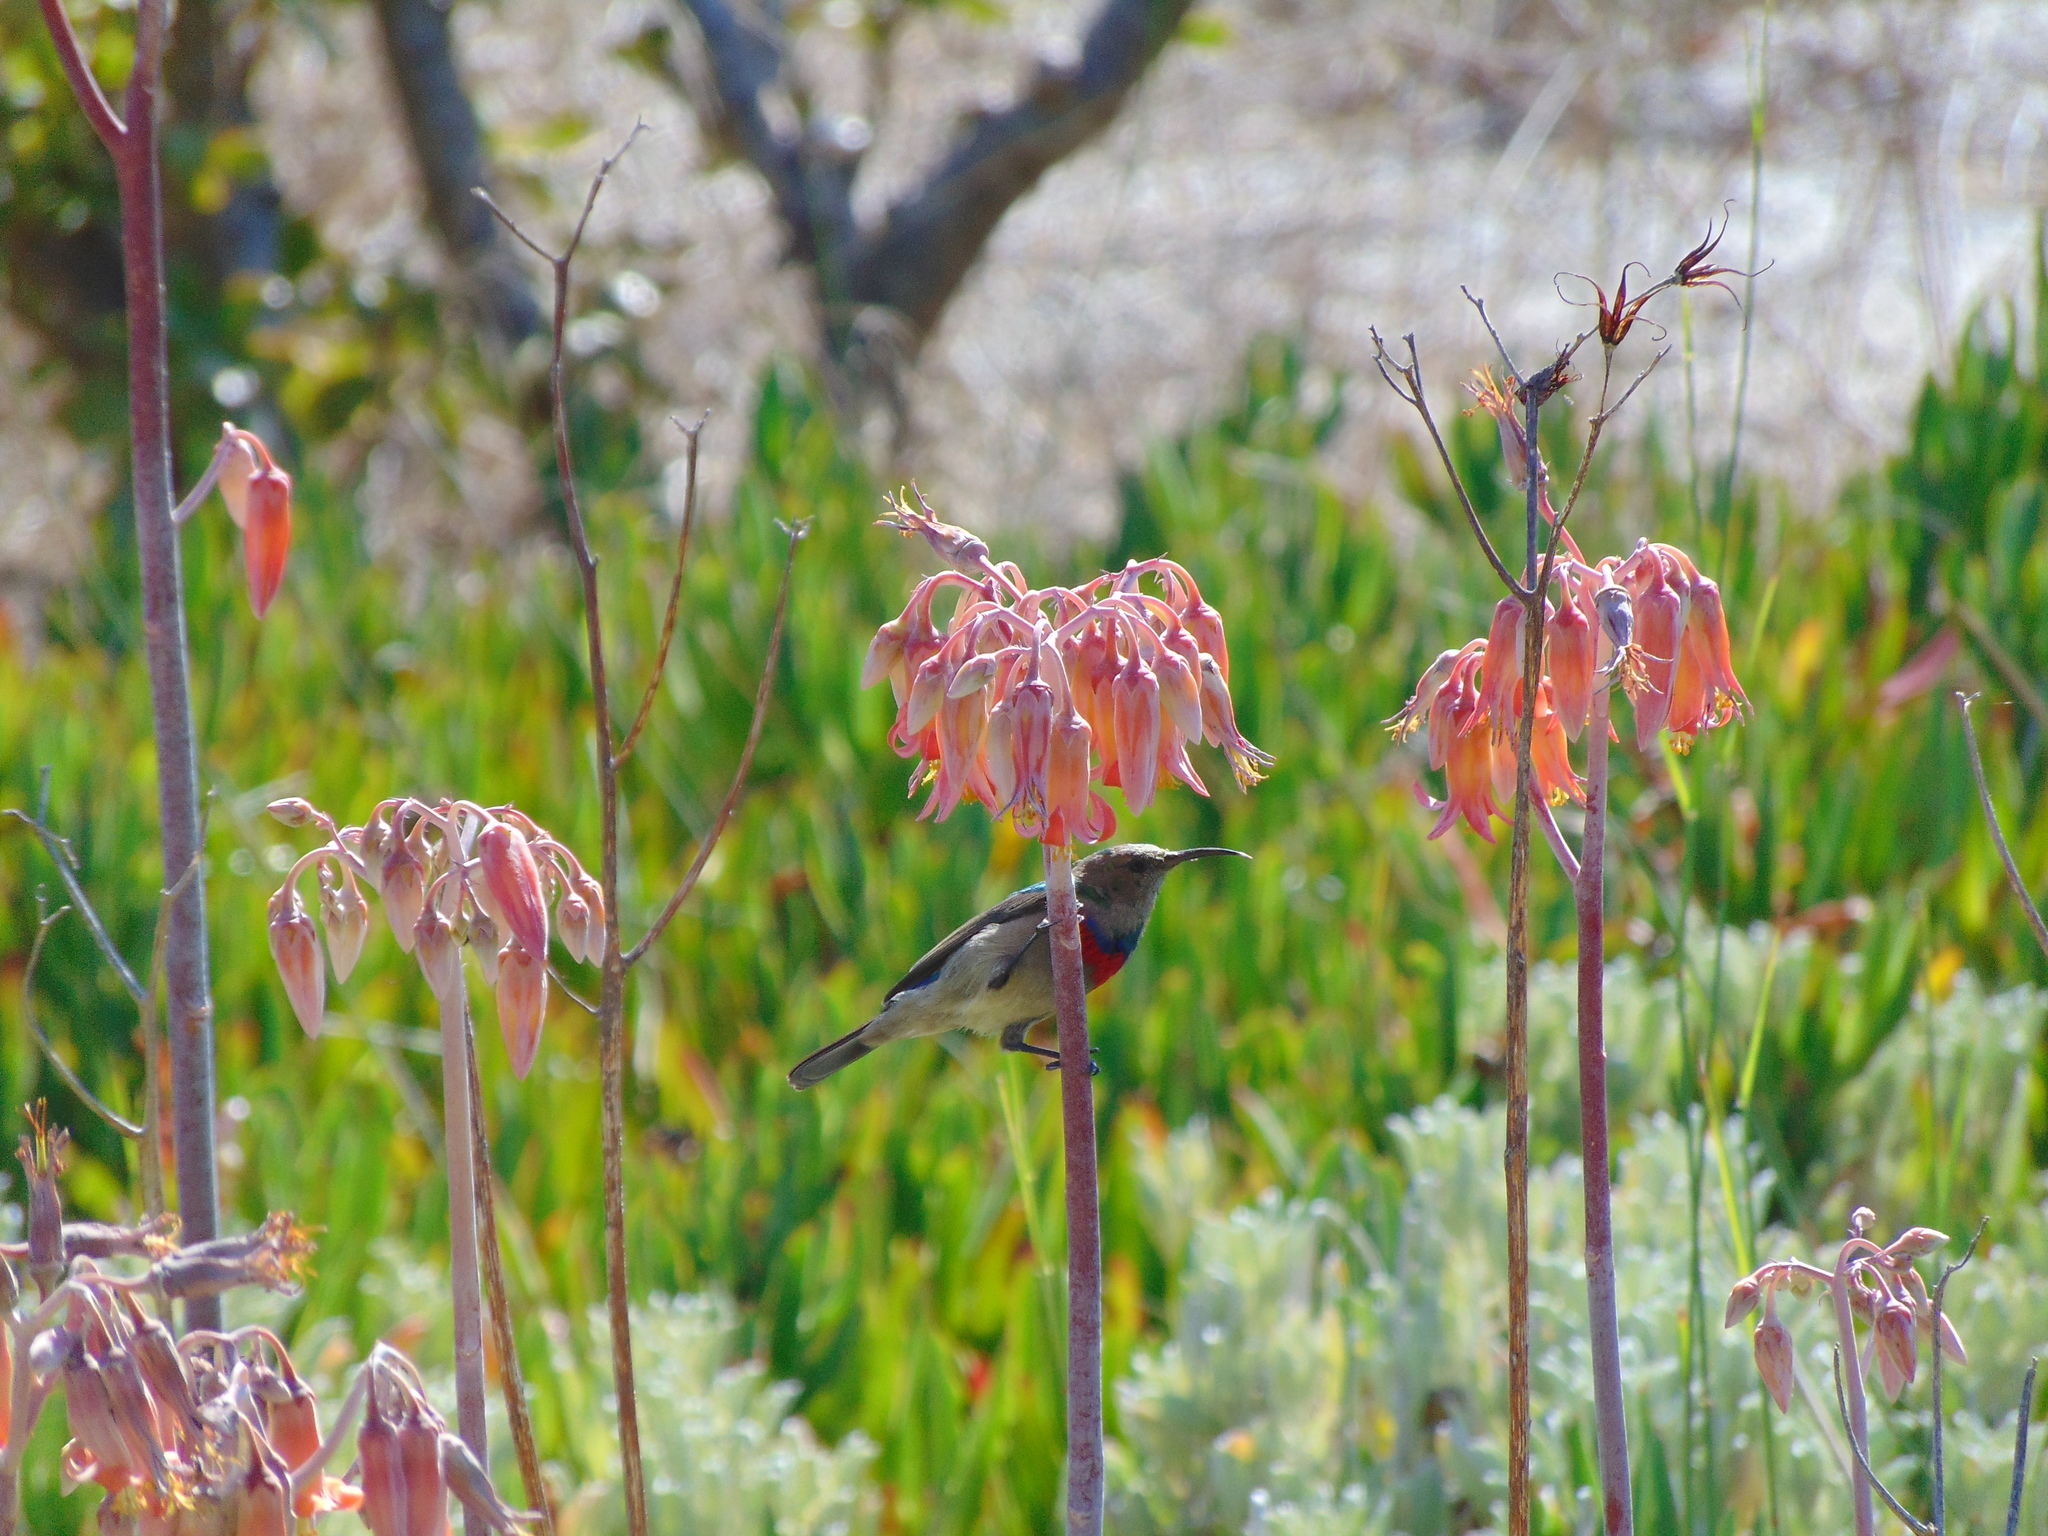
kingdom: Animalia
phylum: Chordata
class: Aves
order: Passeriformes
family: Nectariniidae
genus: Cinnyris
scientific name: Cinnyris chalybeus
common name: Southern double-collared sunbird
